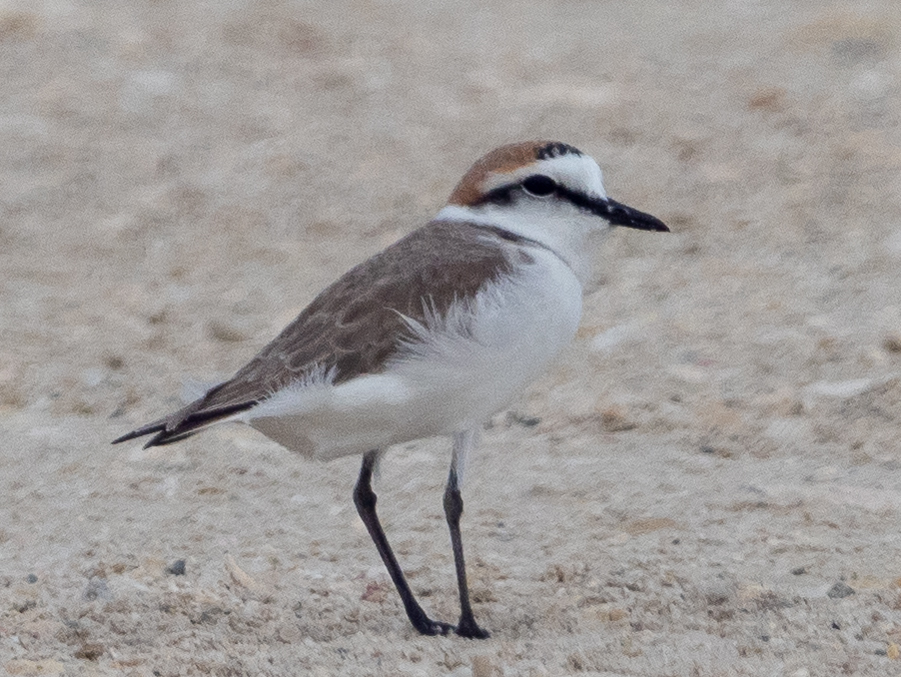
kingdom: Animalia
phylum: Chordata
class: Aves
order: Charadriiformes
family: Charadriidae
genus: Charadrius
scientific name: Charadrius alexandrinus
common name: Kentish plover
